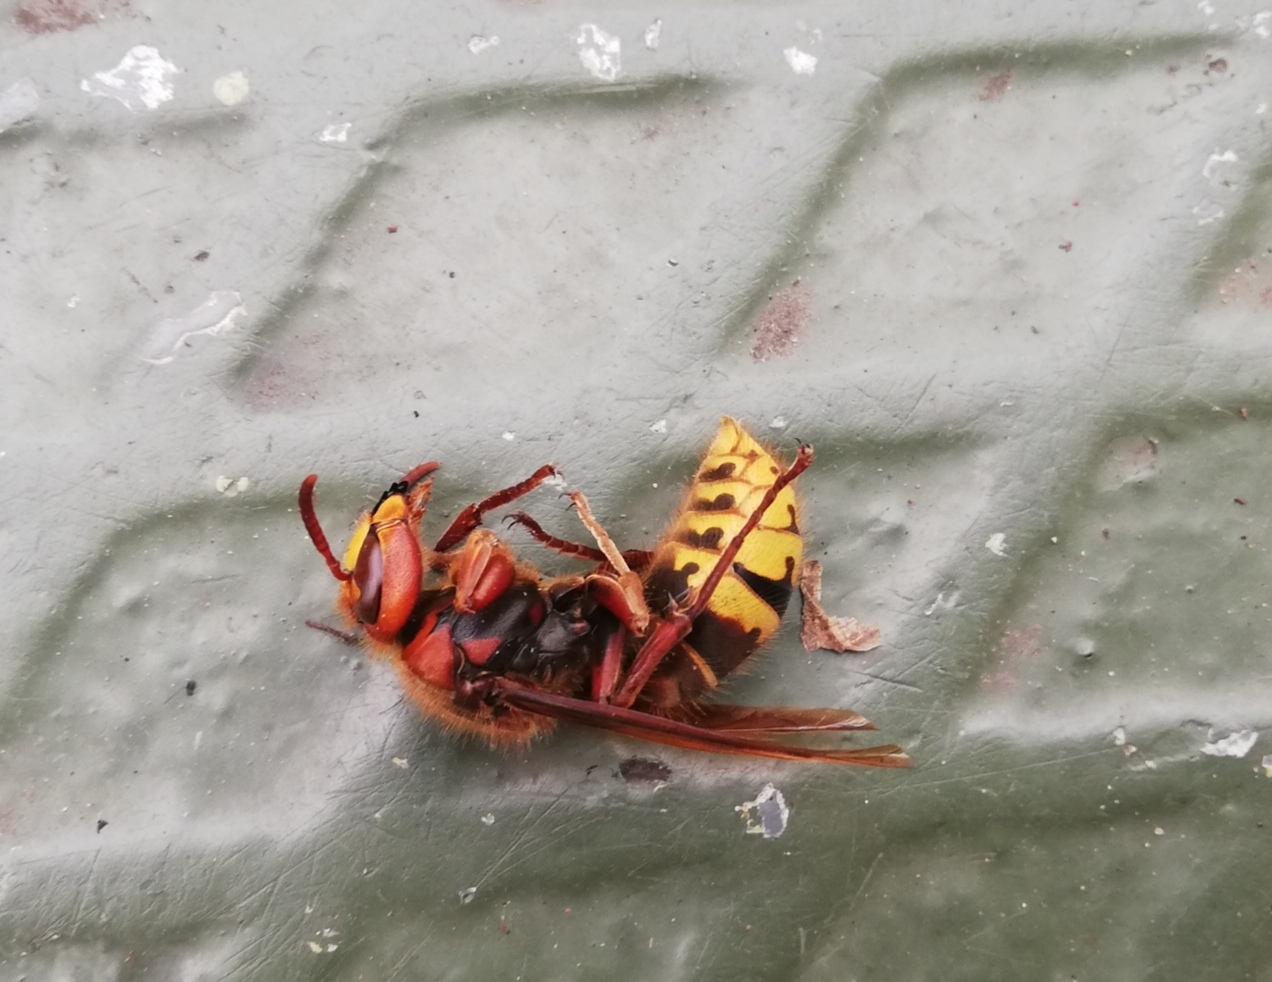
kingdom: Animalia
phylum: Arthropoda
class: Insecta
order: Hymenoptera
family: Vespidae
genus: Vespa
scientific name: Vespa crabro
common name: Hornet
